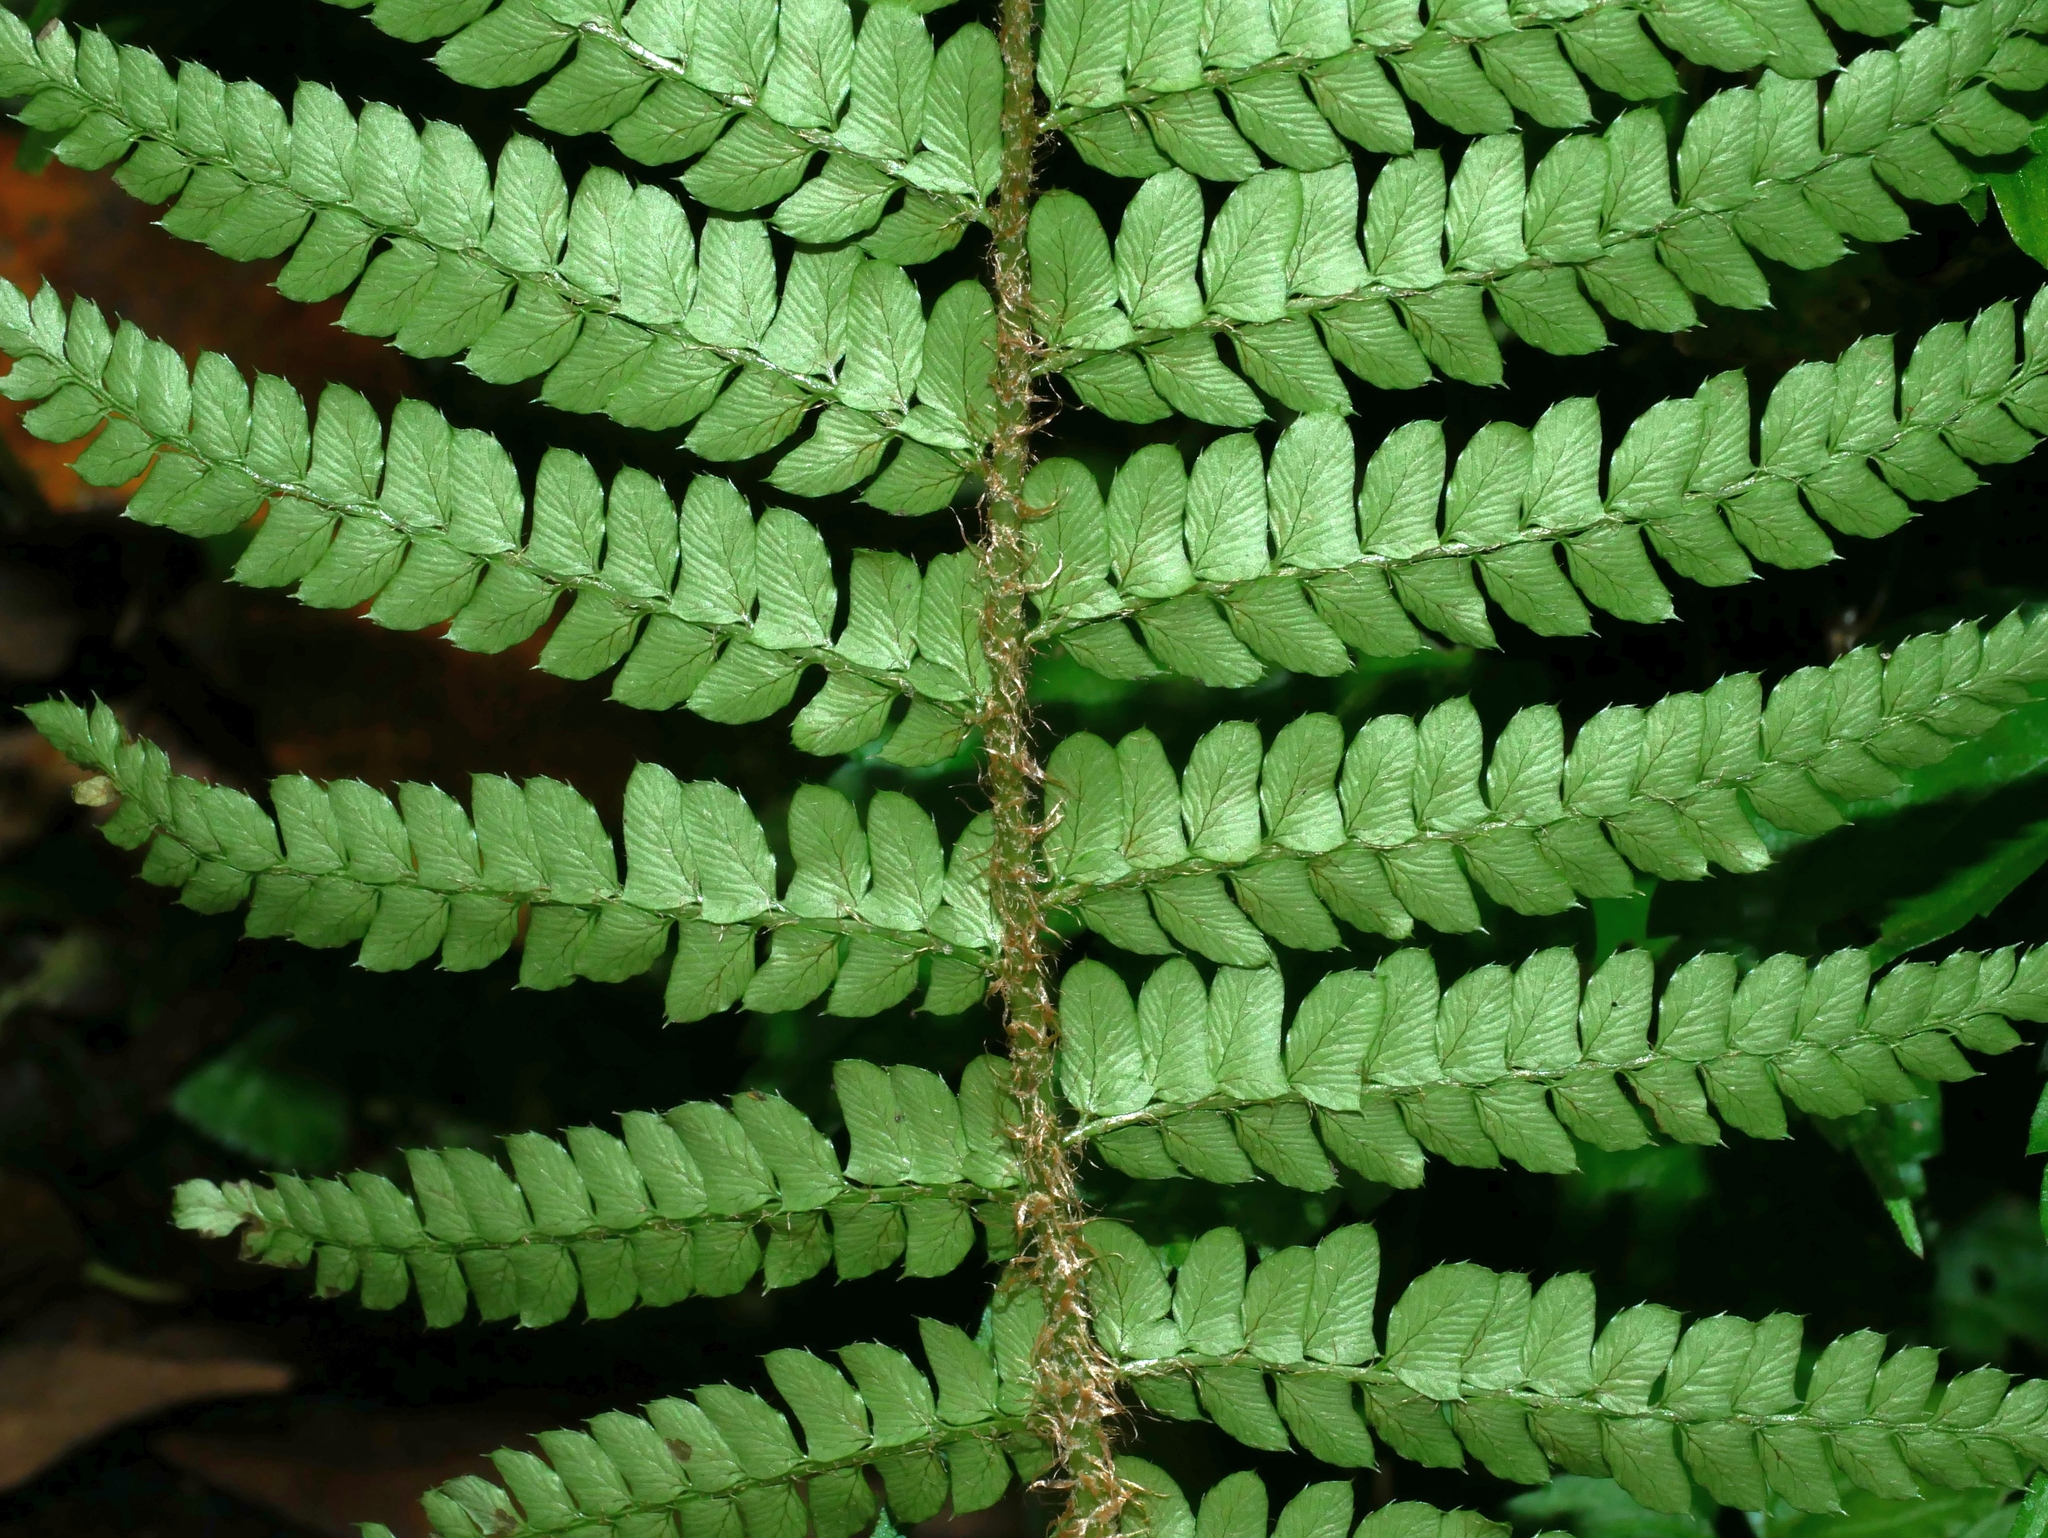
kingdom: Plantae
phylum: Tracheophyta
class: Polypodiopsida
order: Polypodiales
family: Dryopteridaceae
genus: Polystichum
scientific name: Polystichum parvipinnulum
